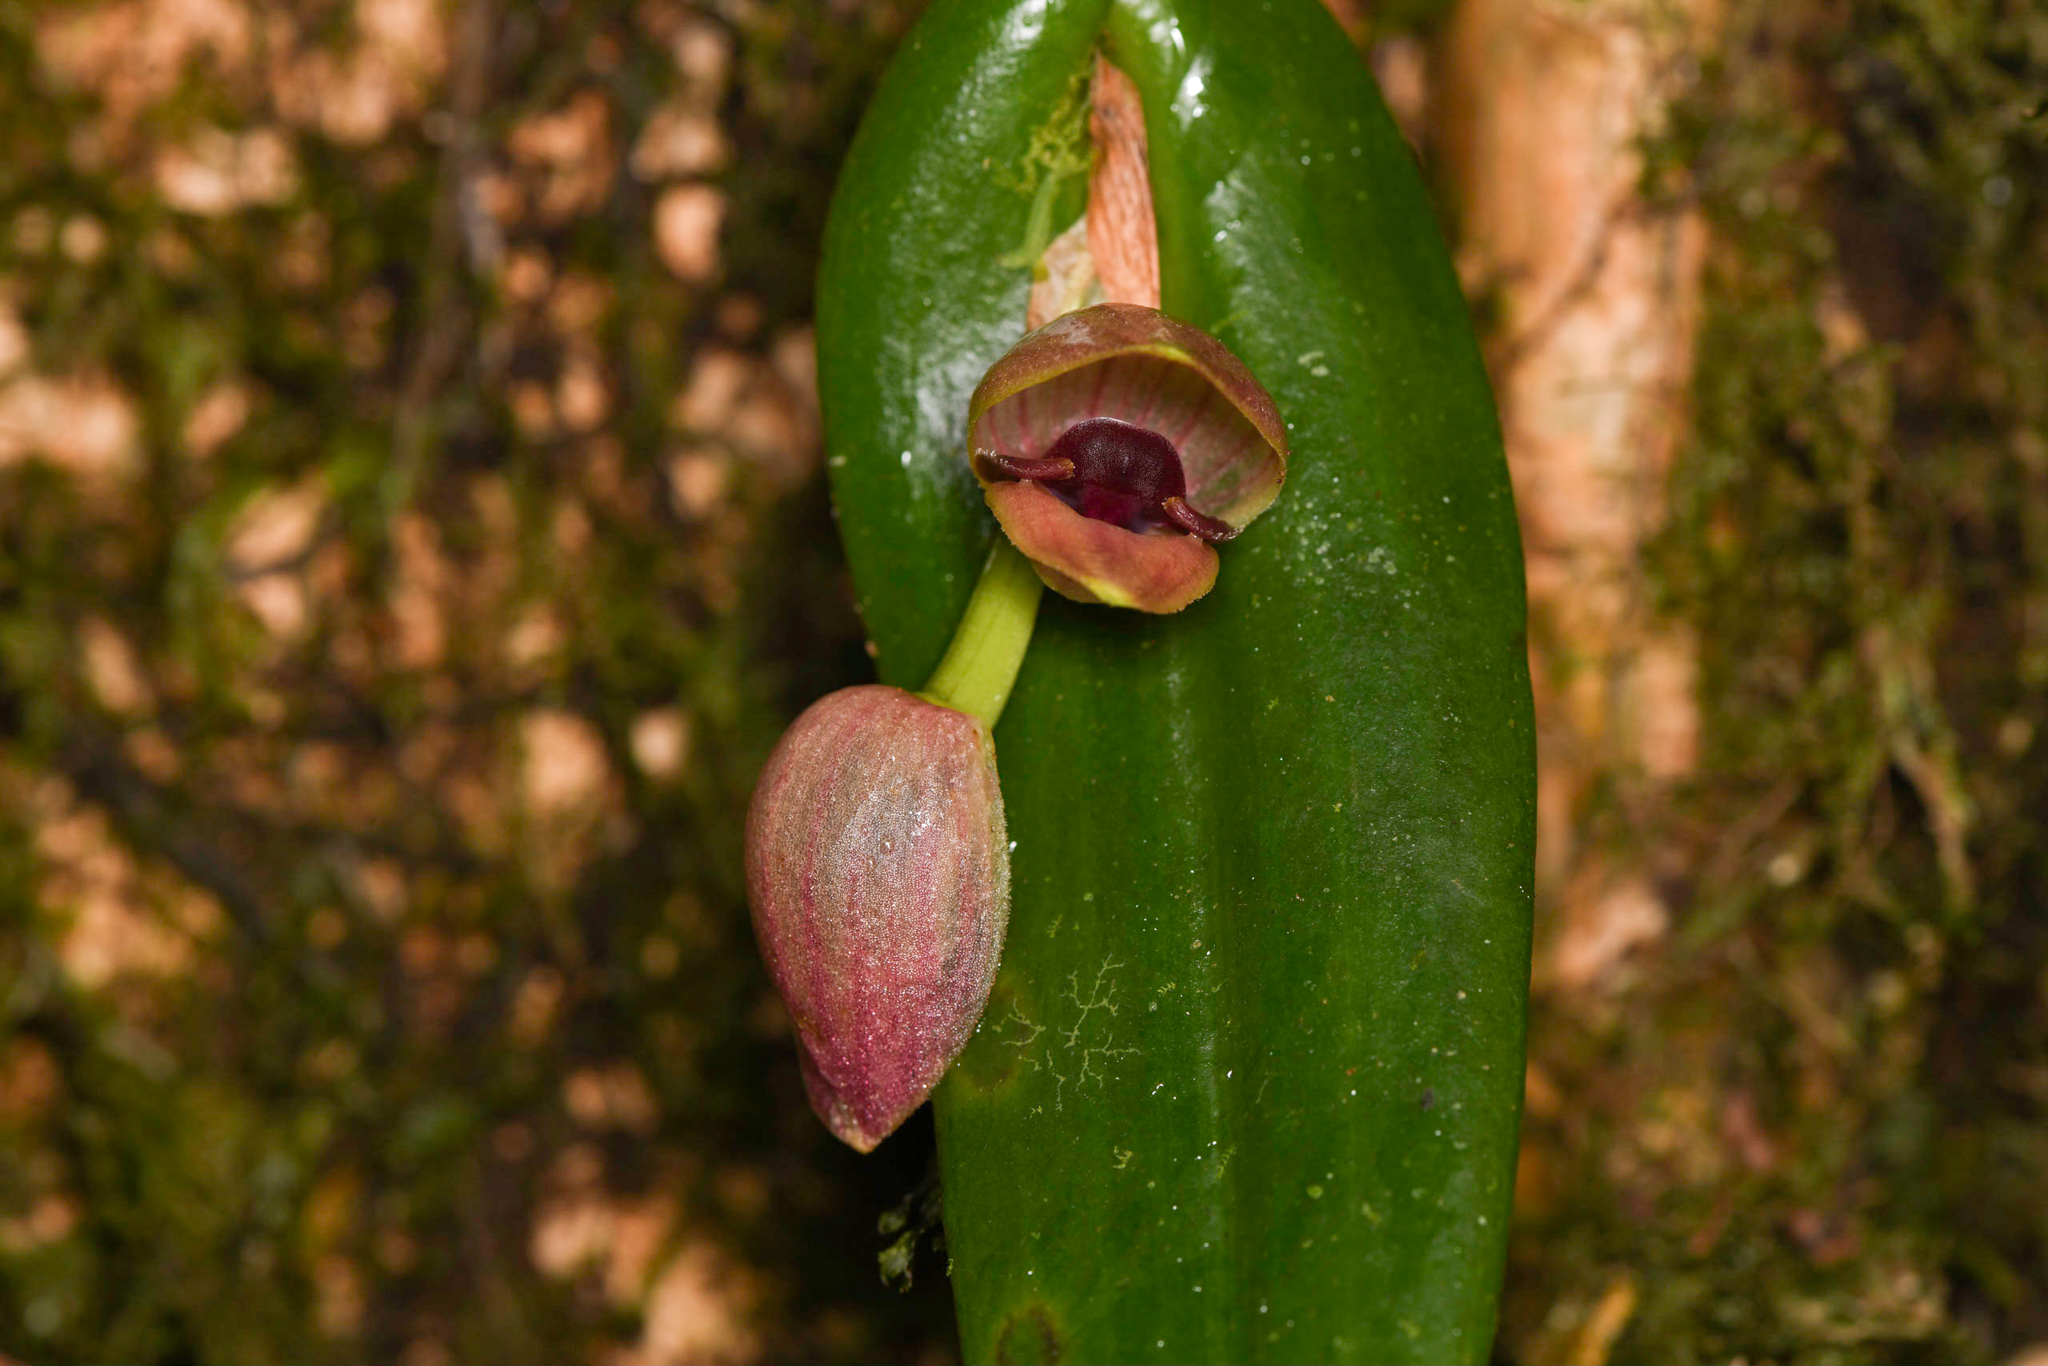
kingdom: Plantae
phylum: Tracheophyta
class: Liliopsida
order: Asparagales
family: Orchidaceae
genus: Pleurothallis
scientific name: Pleurothallis palliolata
